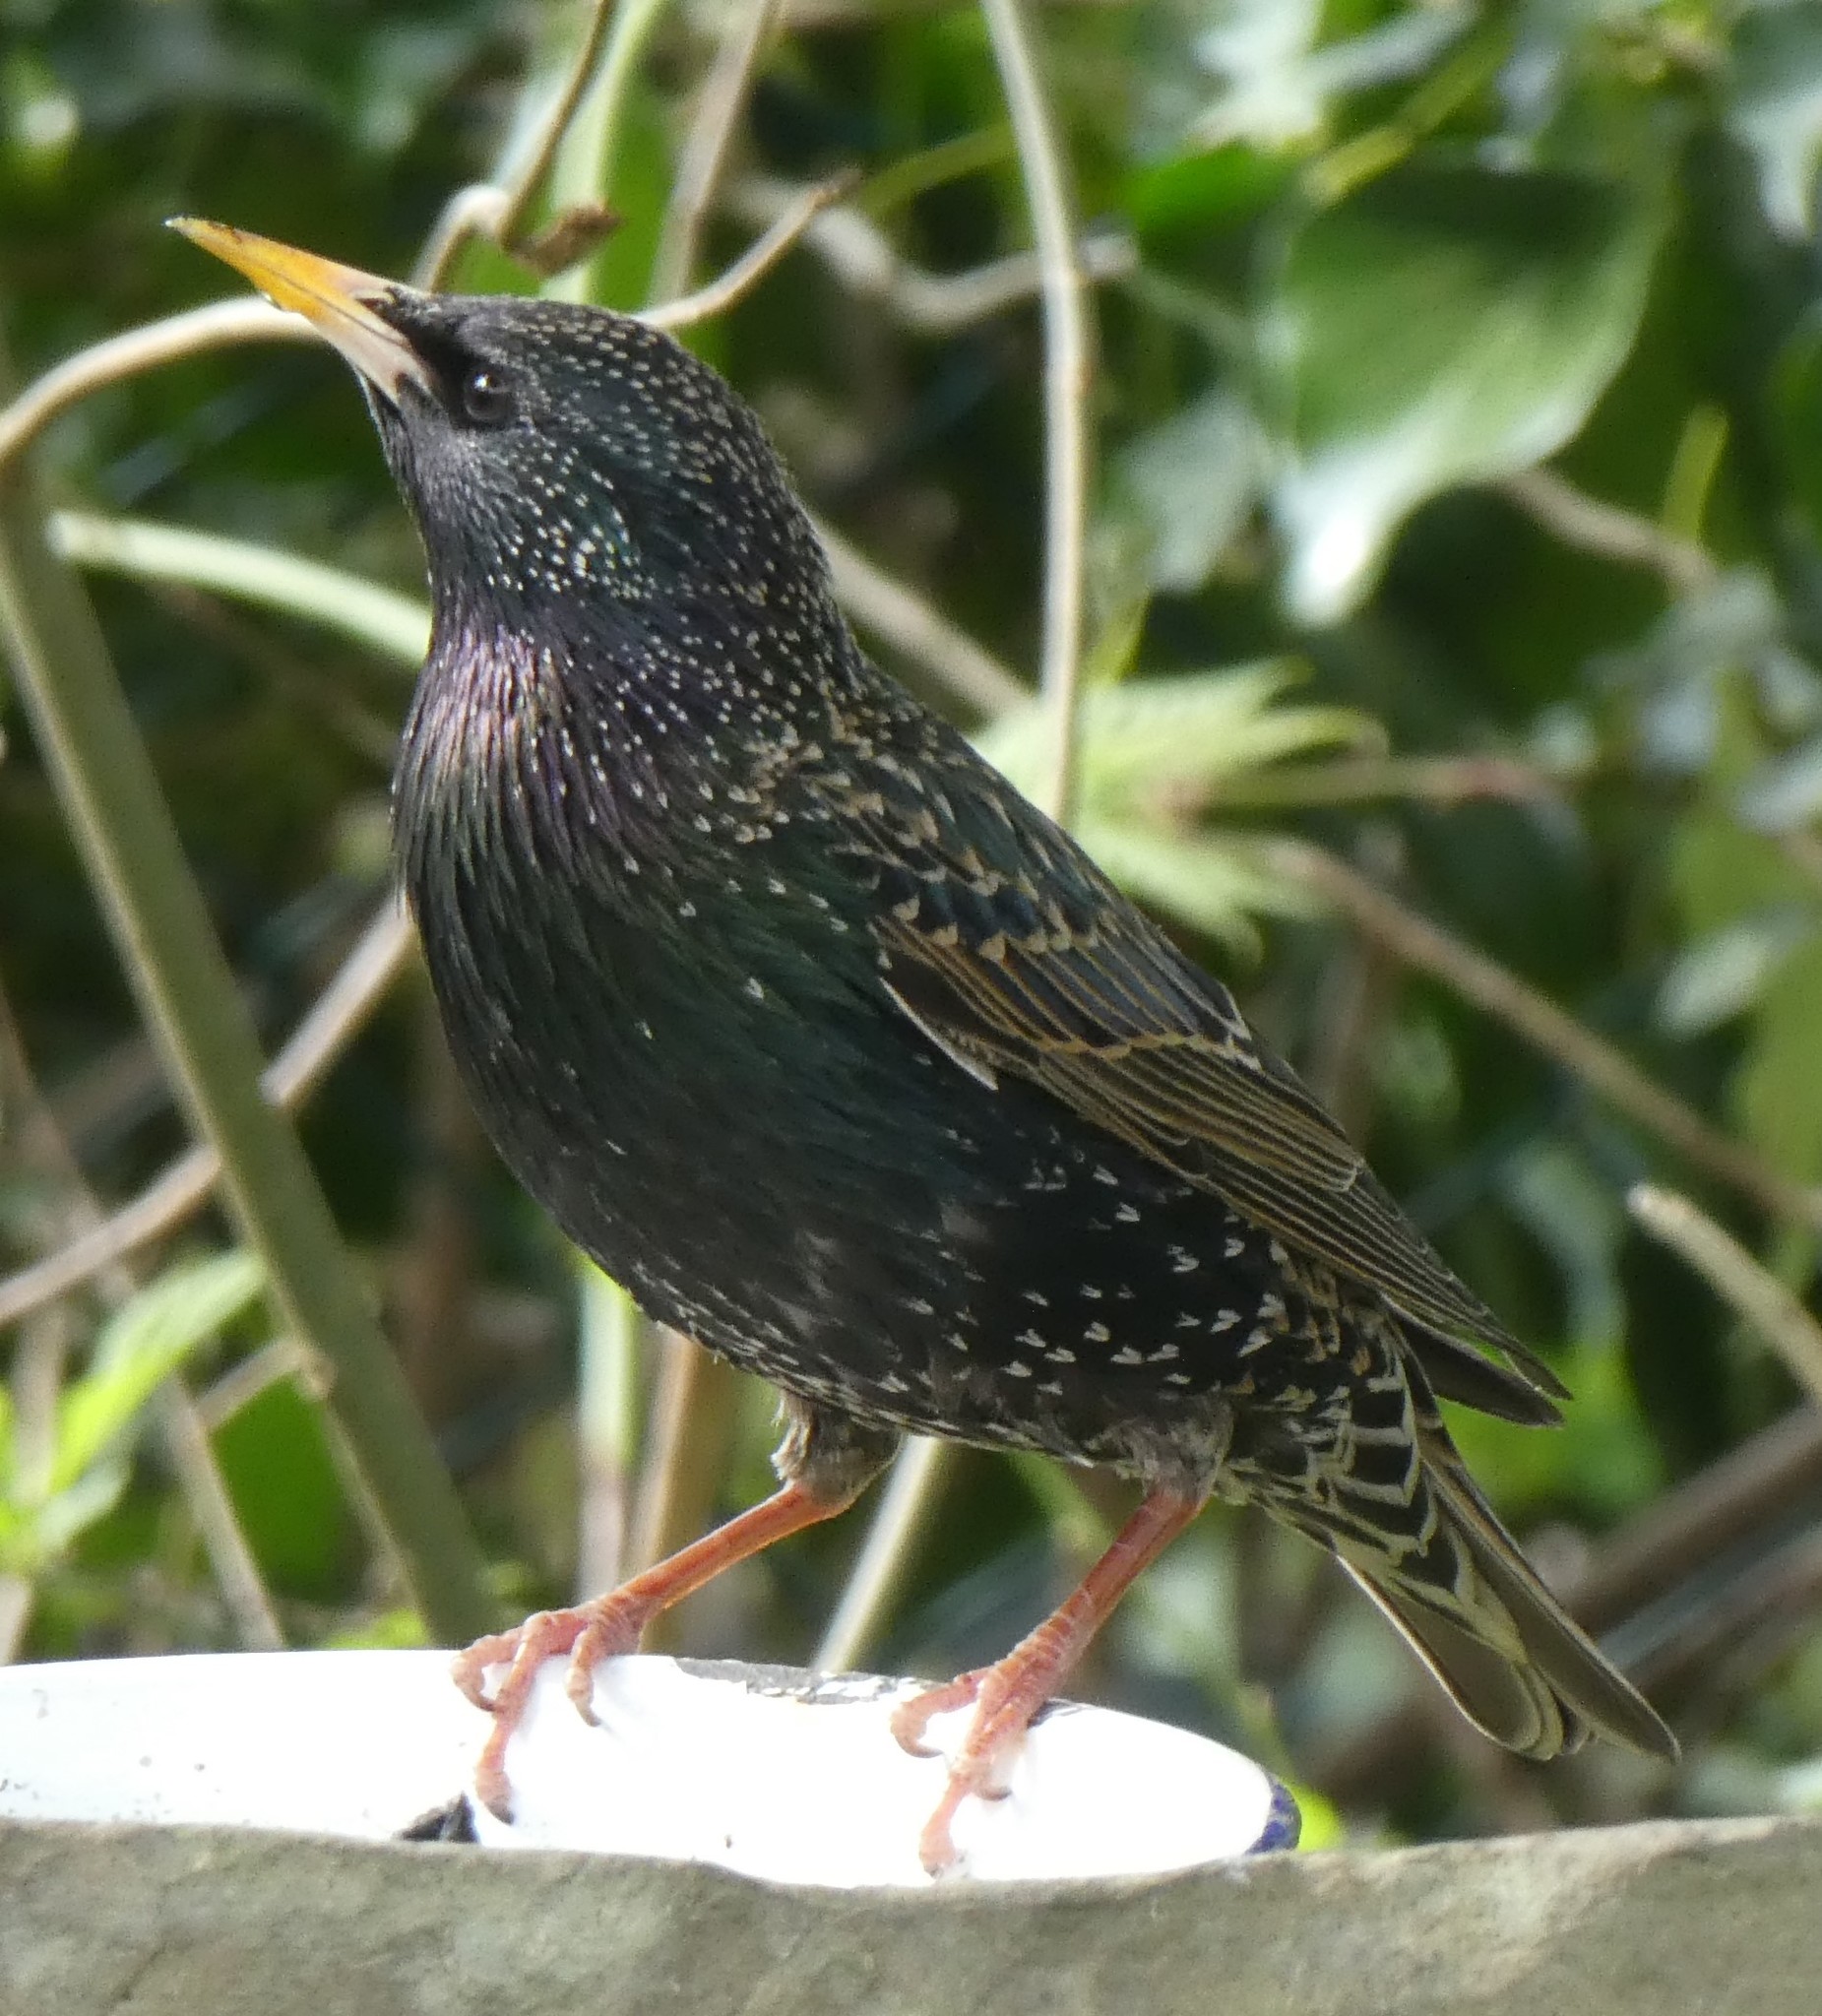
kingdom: Animalia
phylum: Chordata
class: Aves
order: Passeriformes
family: Sturnidae
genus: Sturnus
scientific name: Sturnus vulgaris
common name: Common starling
